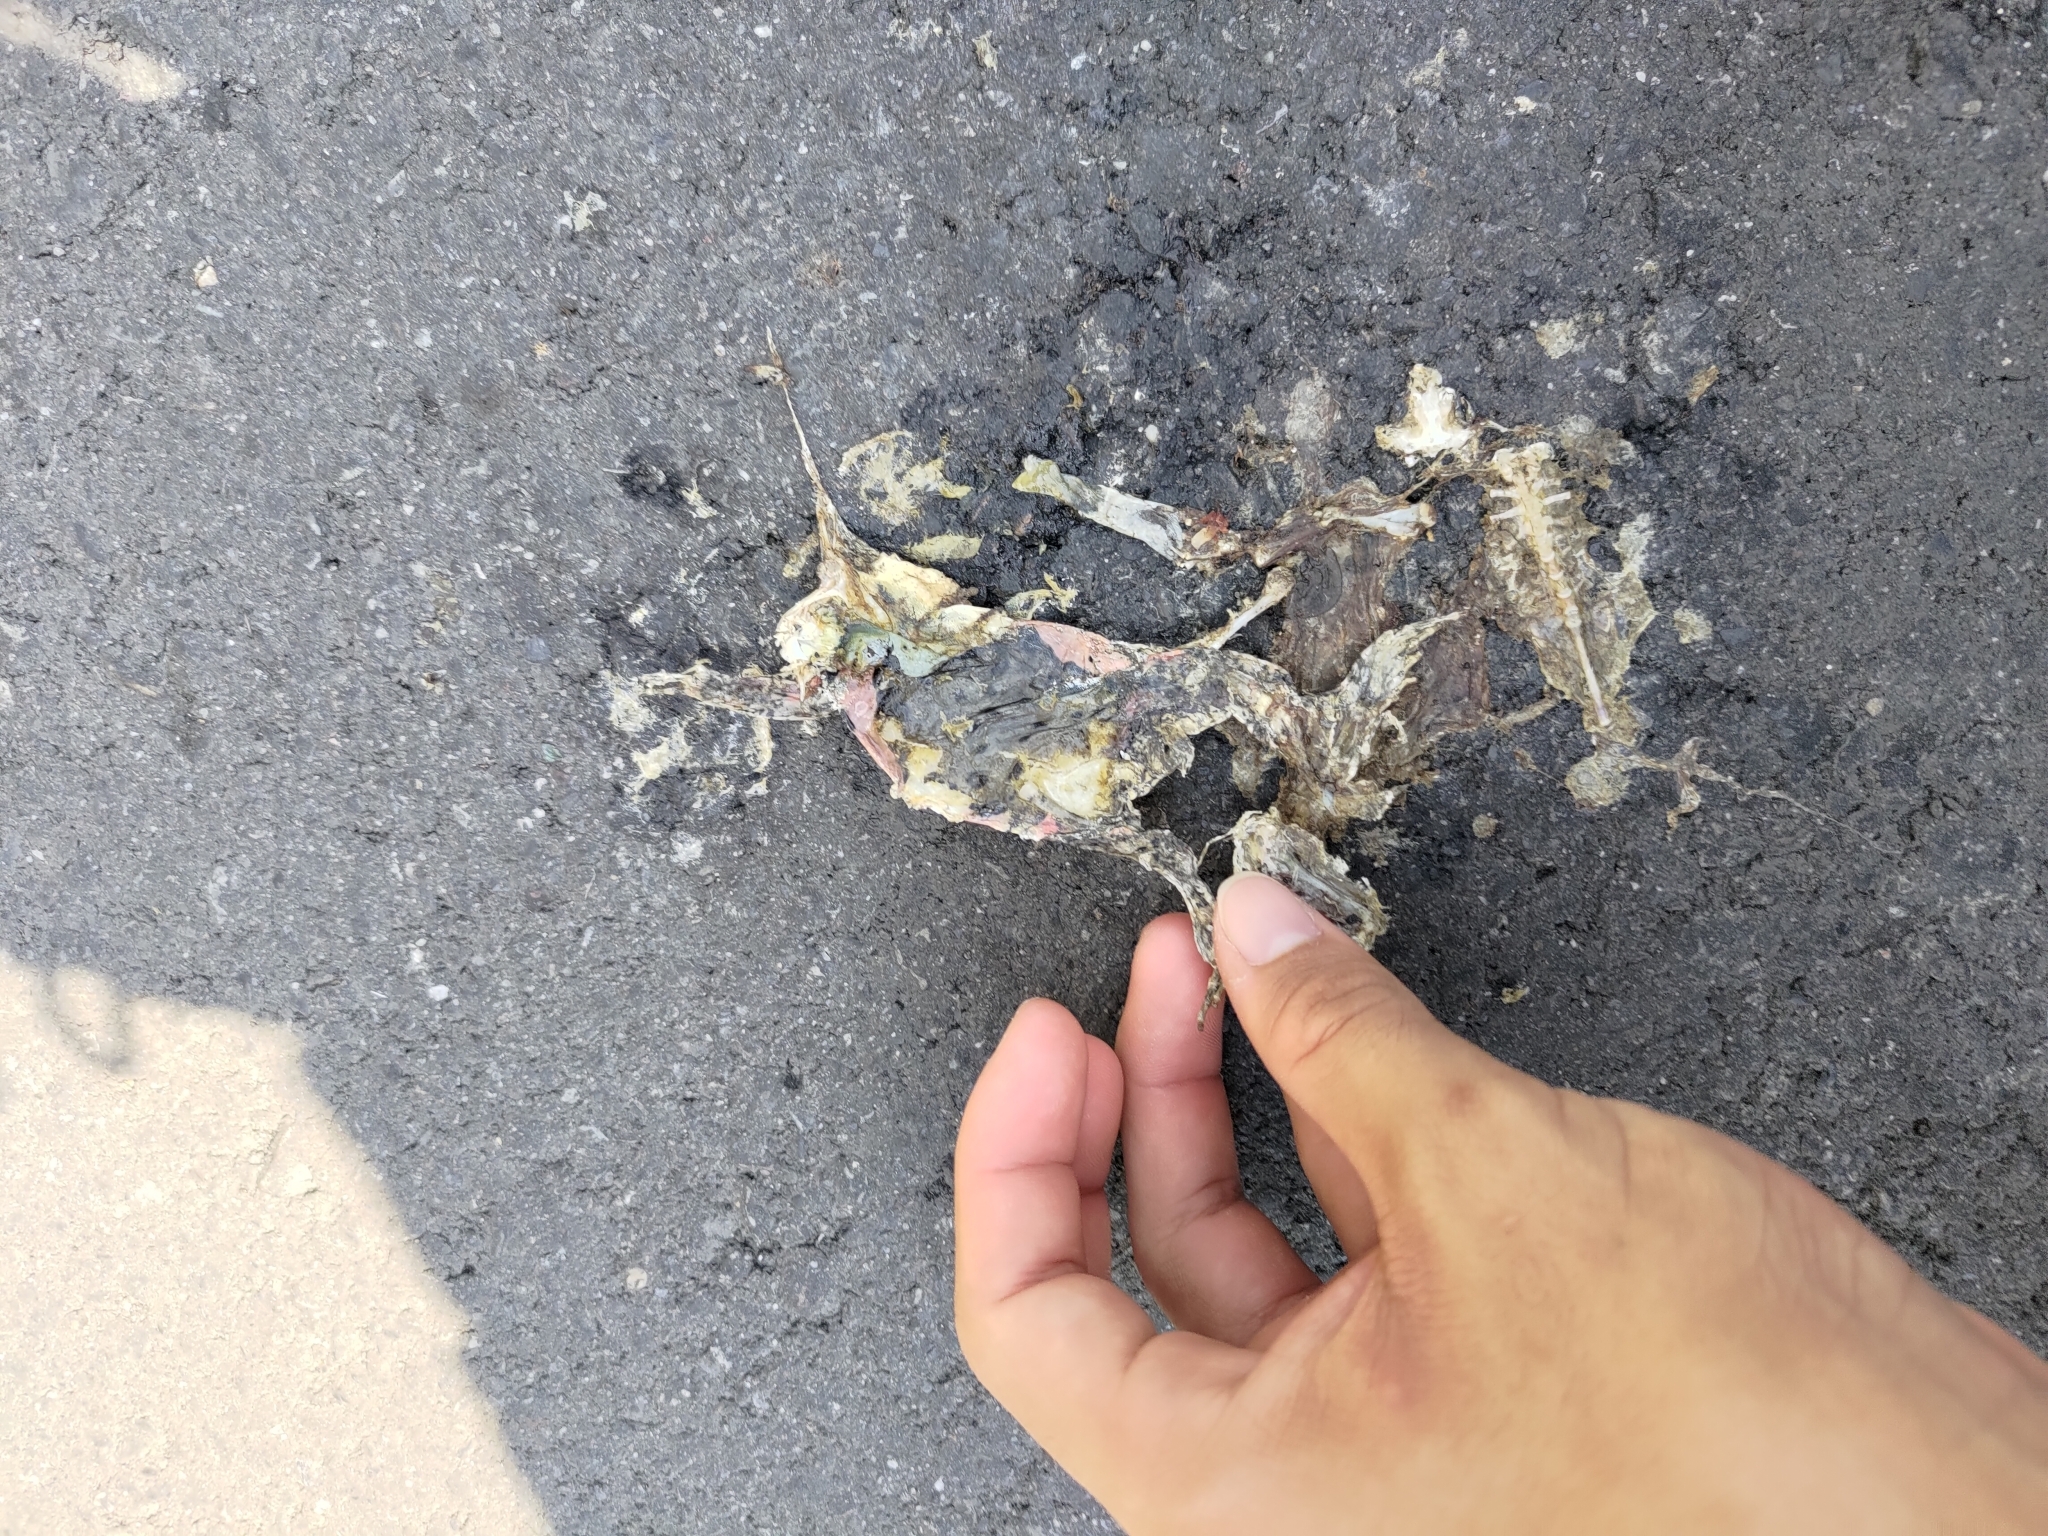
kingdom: Animalia
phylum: Chordata
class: Amphibia
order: Anura
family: Microhylidae
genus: Kaloula
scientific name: Kaloula pulchra
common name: Common,banded bullfrog
